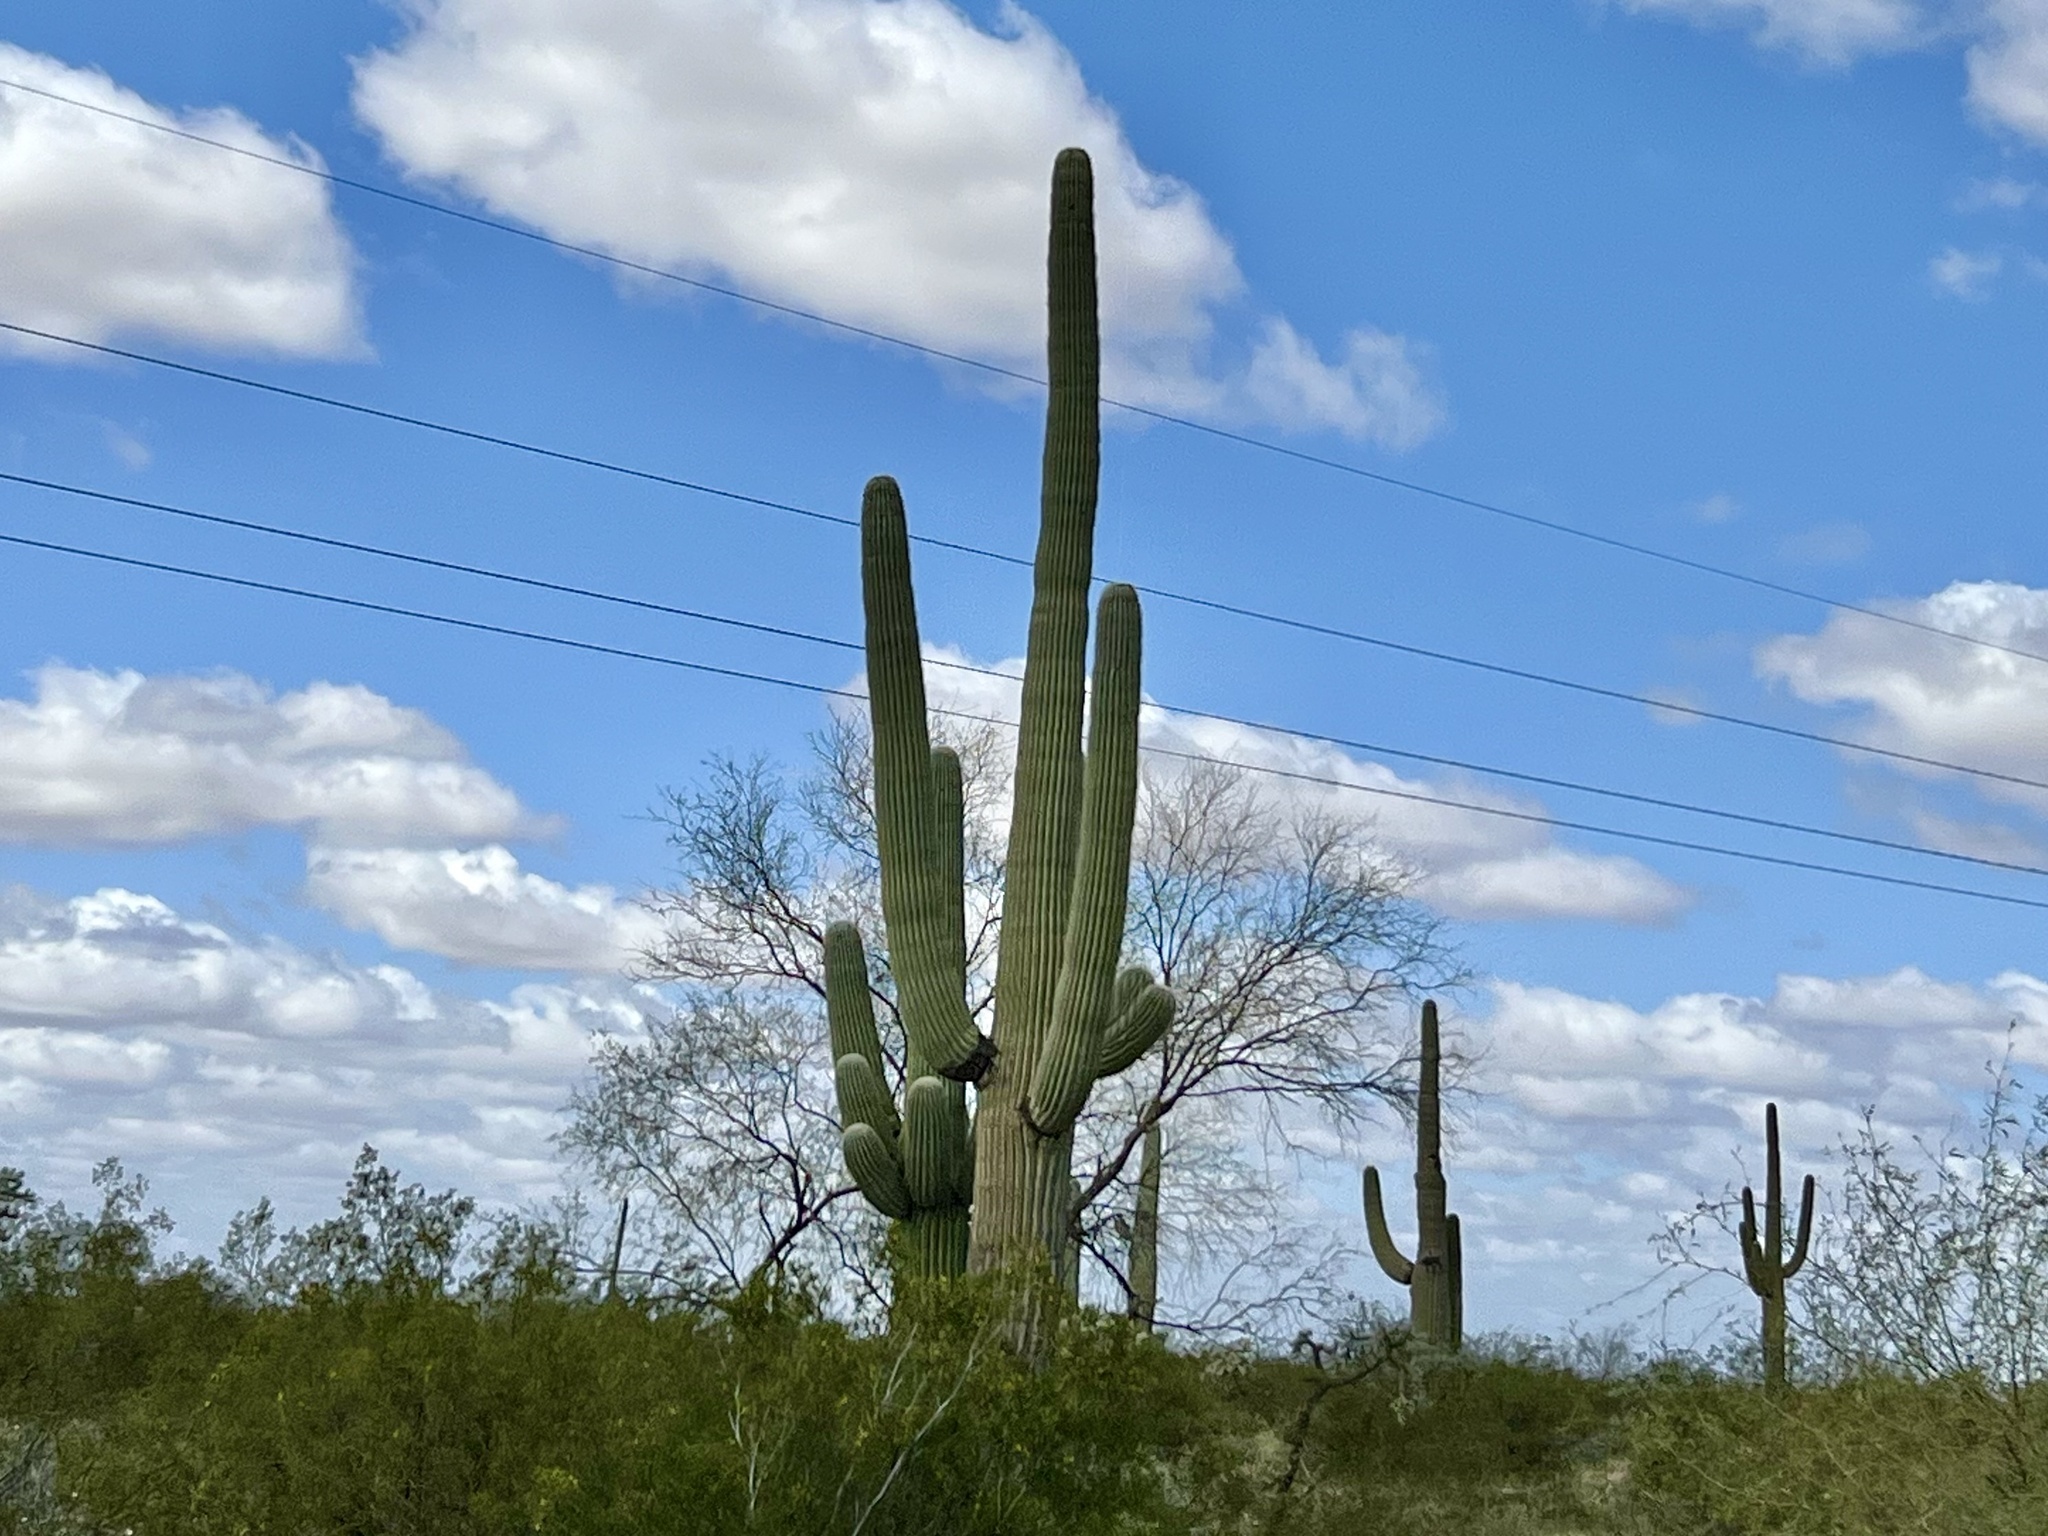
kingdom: Plantae
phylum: Tracheophyta
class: Magnoliopsida
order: Caryophyllales
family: Cactaceae
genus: Carnegiea
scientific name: Carnegiea gigantea
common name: Saguaro
